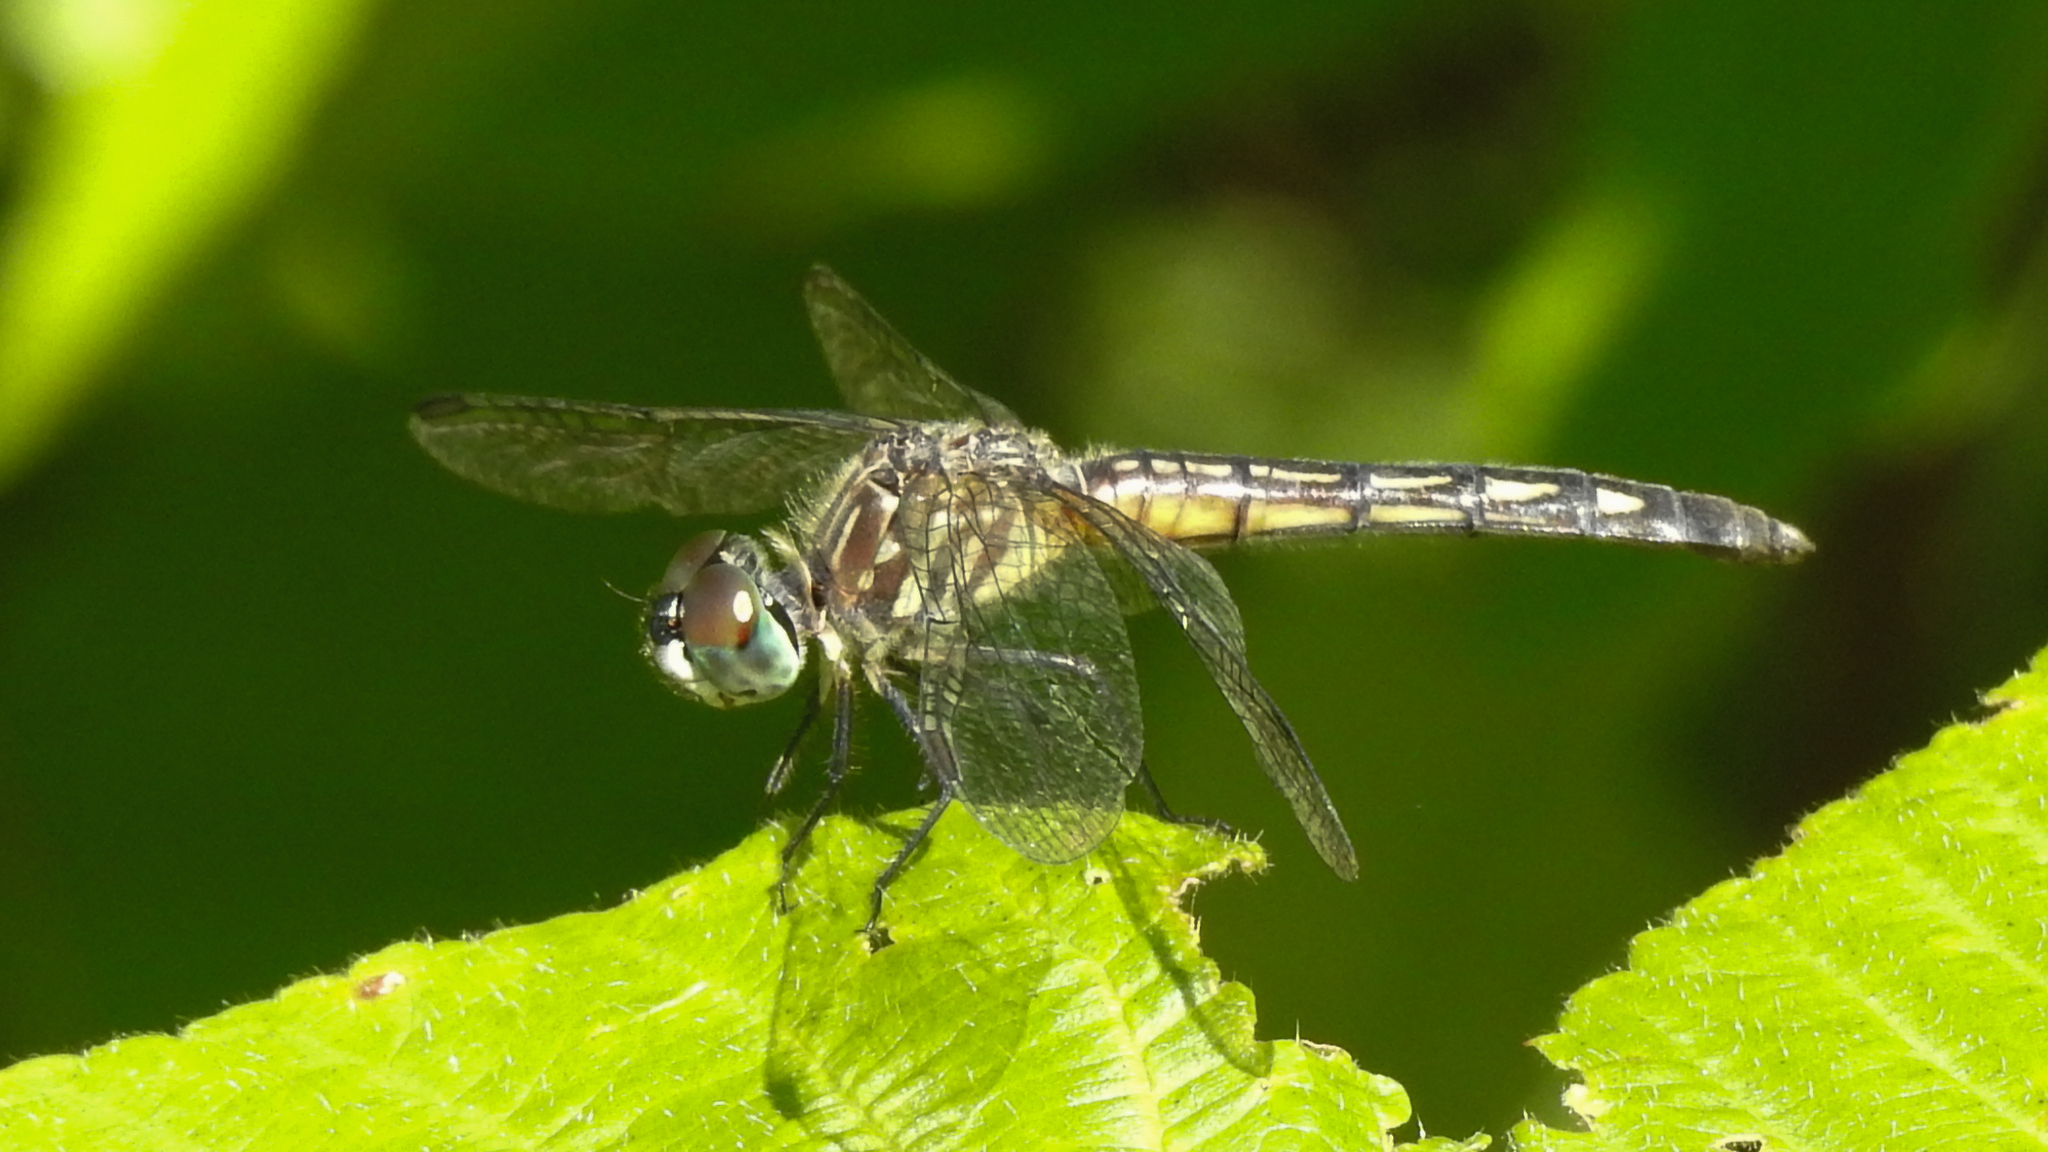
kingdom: Animalia
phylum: Arthropoda
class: Insecta
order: Odonata
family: Libellulidae
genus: Pachydiplax
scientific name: Pachydiplax longipennis
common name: Blue dasher
